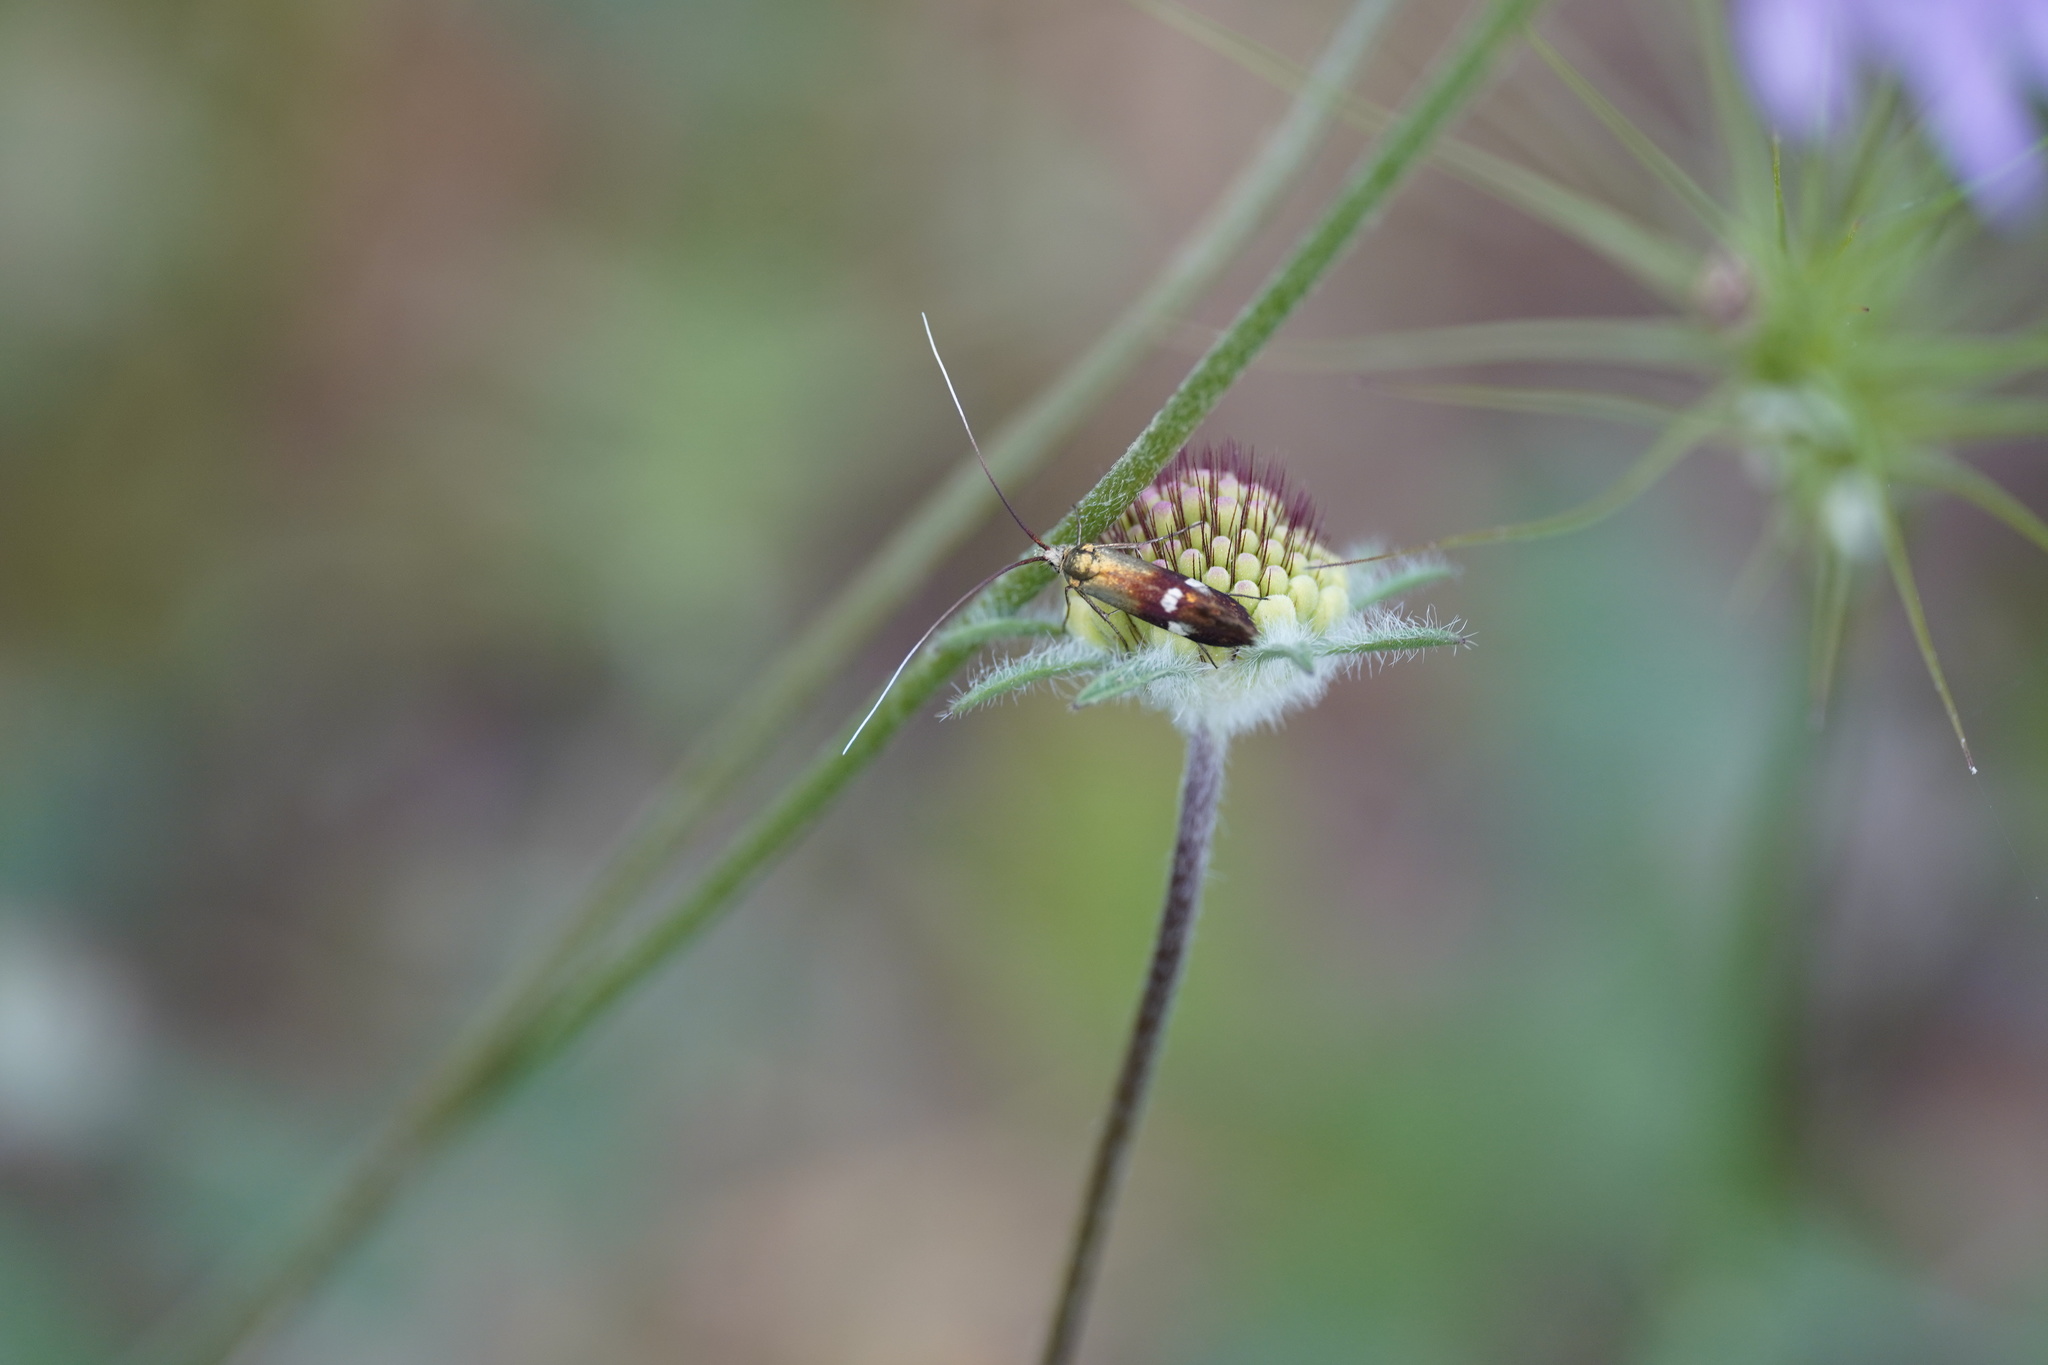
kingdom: Animalia
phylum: Arthropoda
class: Insecta
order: Lepidoptera
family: Adelidae
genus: Nemophora
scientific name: Nemophora raddaella
